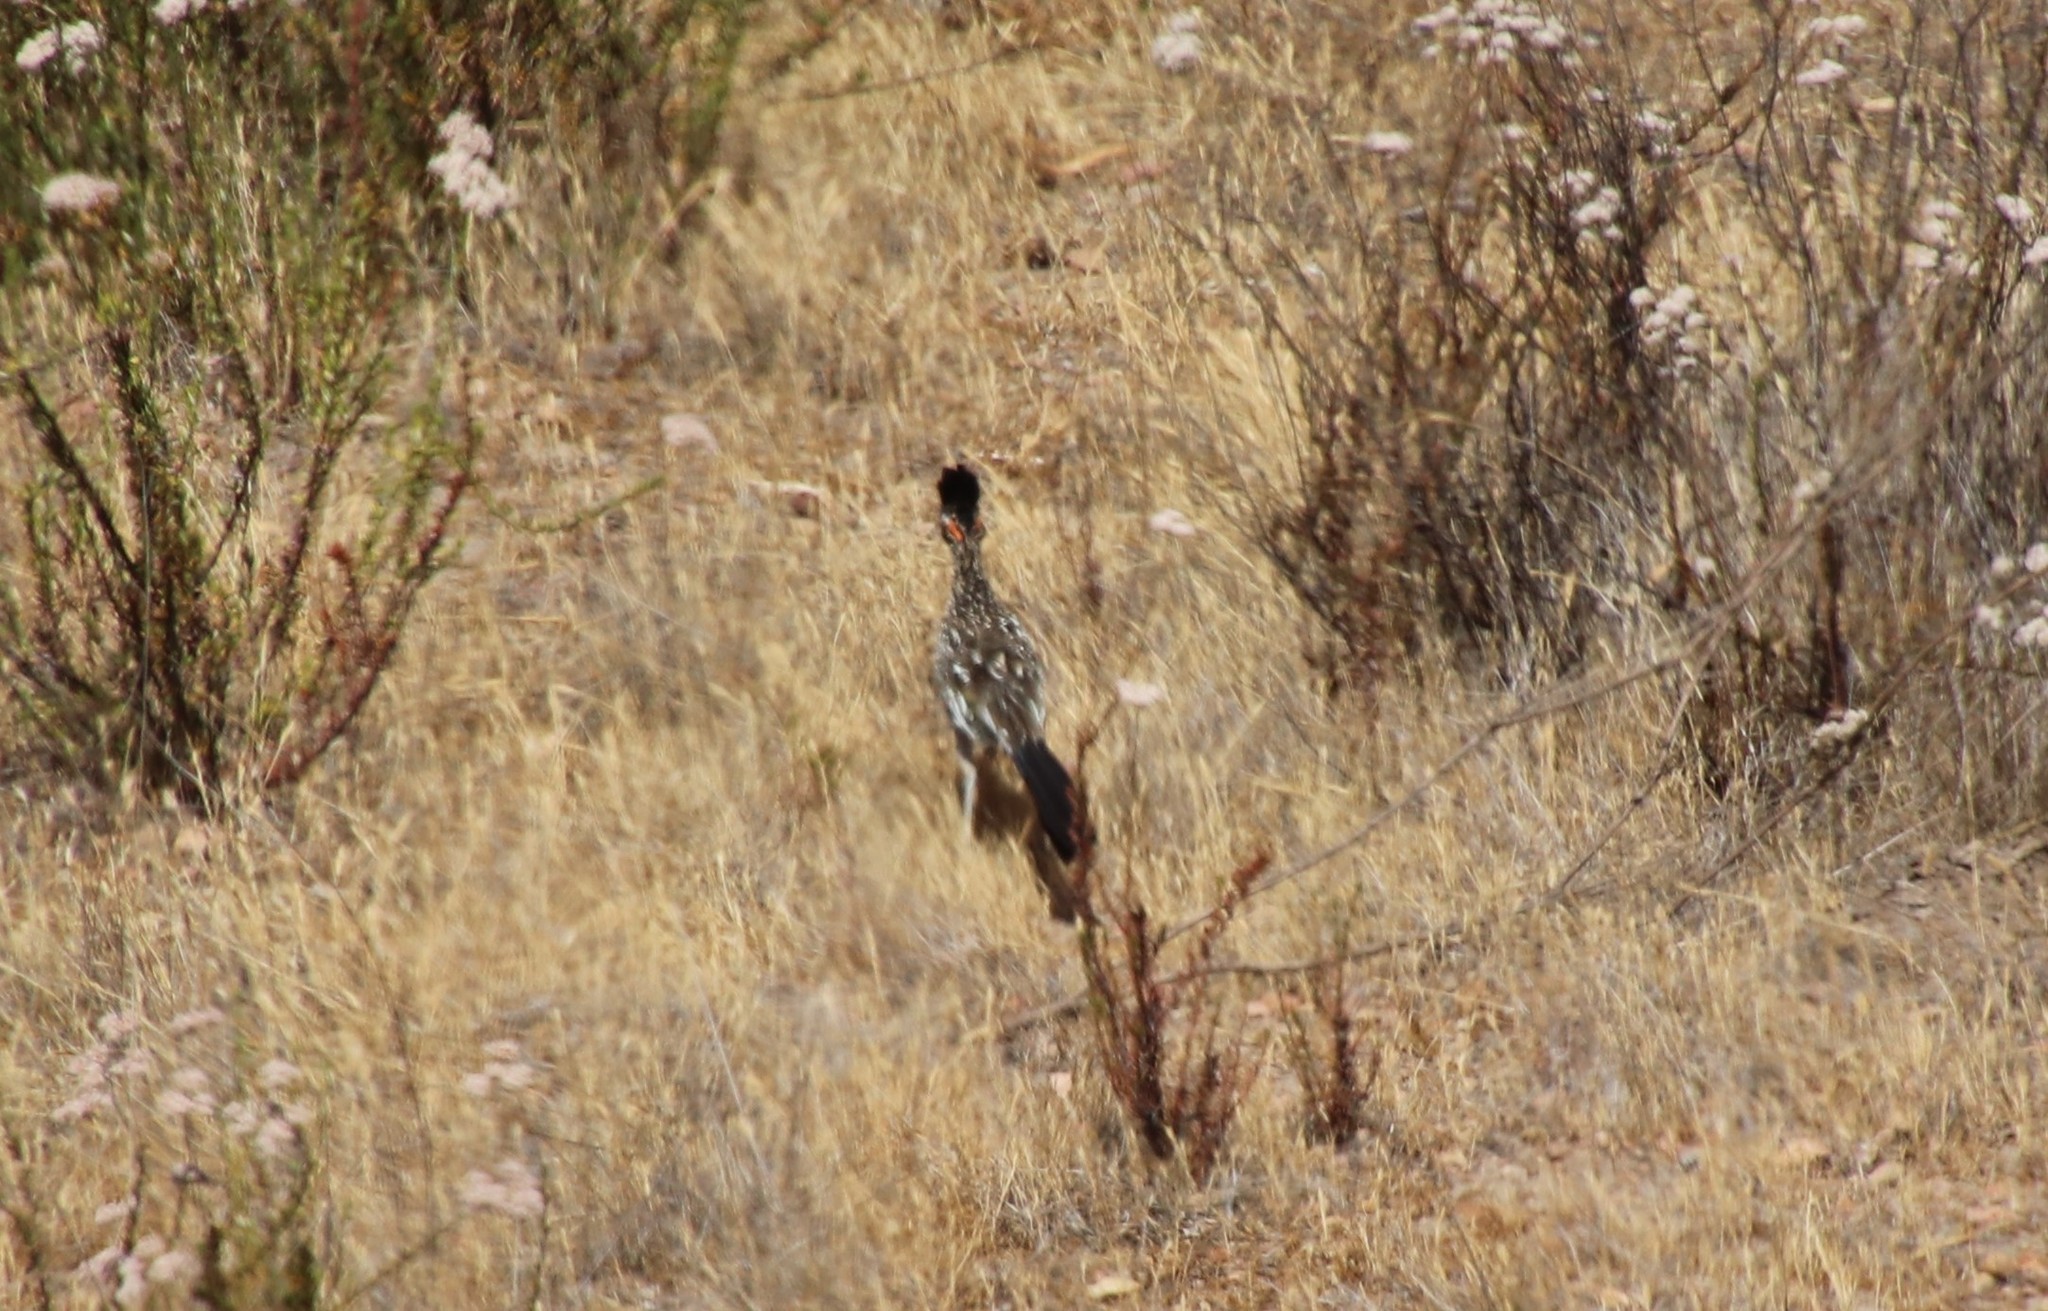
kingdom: Animalia
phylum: Chordata
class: Aves
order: Cuculiformes
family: Cuculidae
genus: Geococcyx
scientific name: Geococcyx californianus
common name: Greater roadrunner
